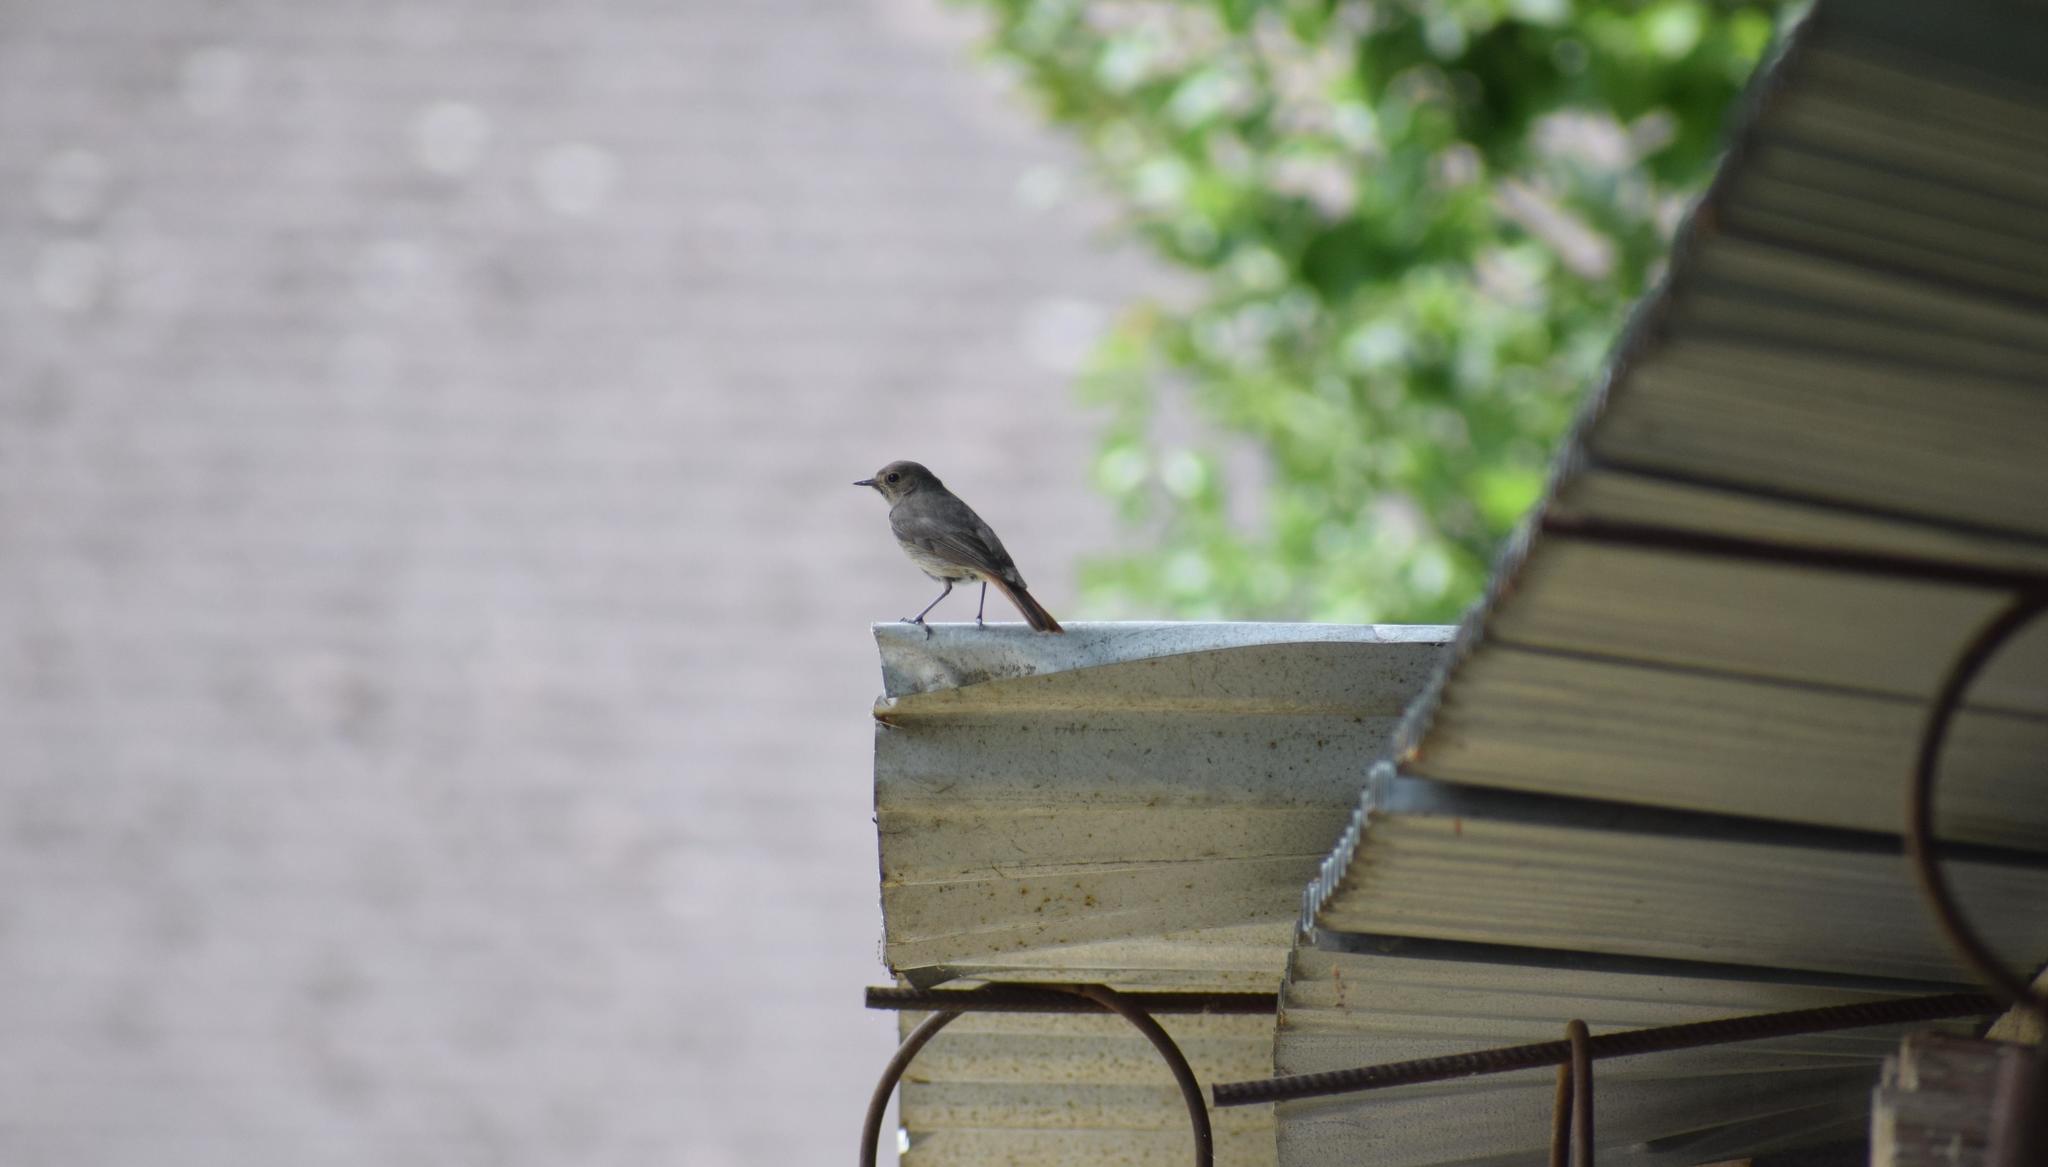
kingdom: Animalia
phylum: Chordata
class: Aves
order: Passeriformes
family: Muscicapidae
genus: Phoenicurus
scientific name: Phoenicurus ochruros
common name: Black redstart
